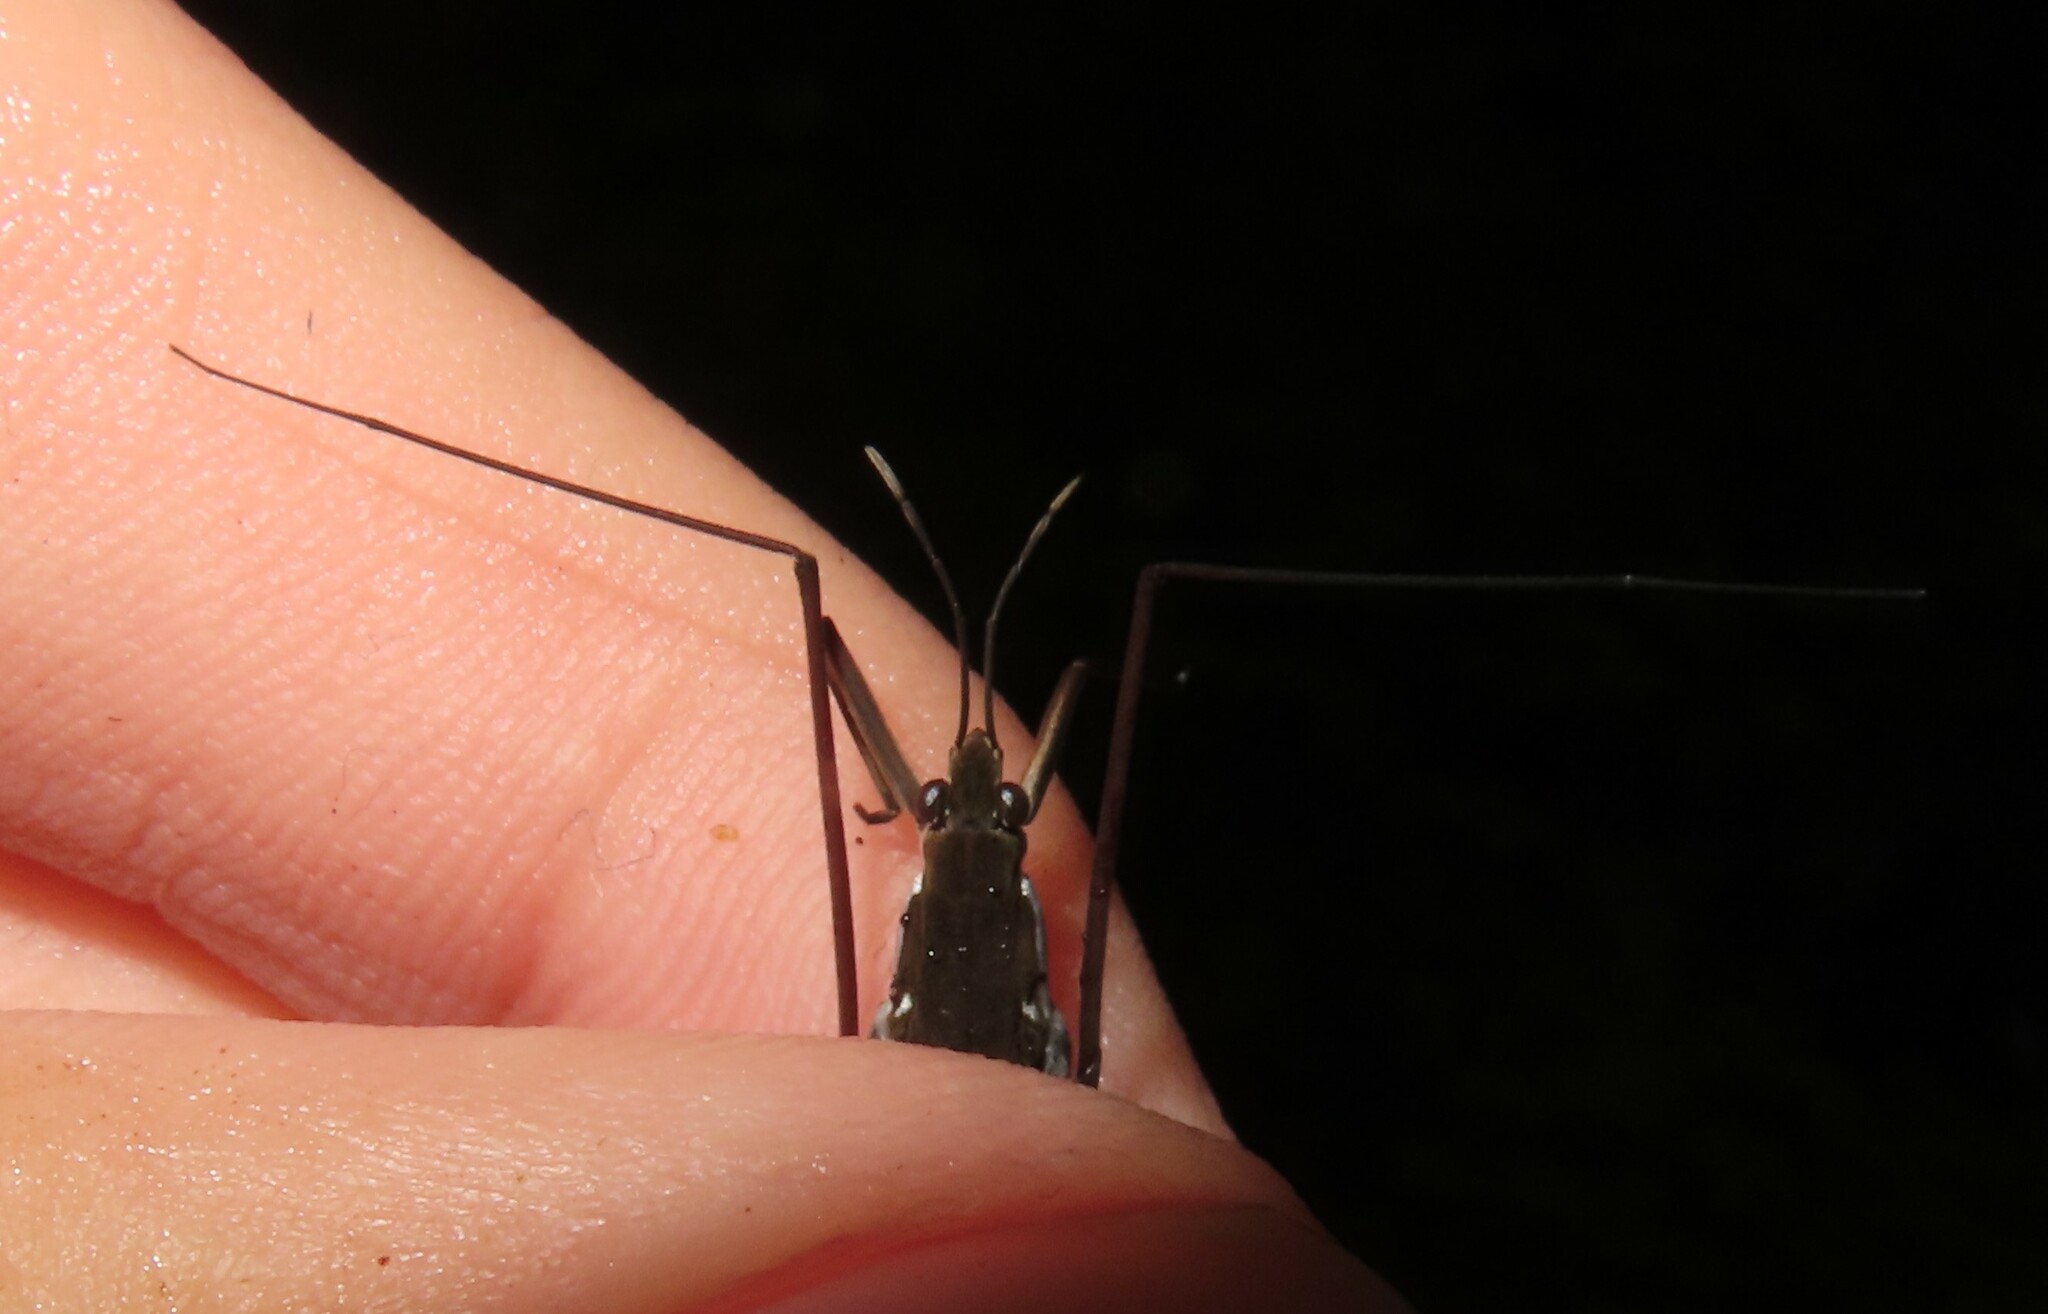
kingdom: Animalia
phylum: Arthropoda
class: Insecta
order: Hemiptera
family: Gerridae
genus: Aquarius
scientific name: Aquarius remigis
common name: Common water strider
